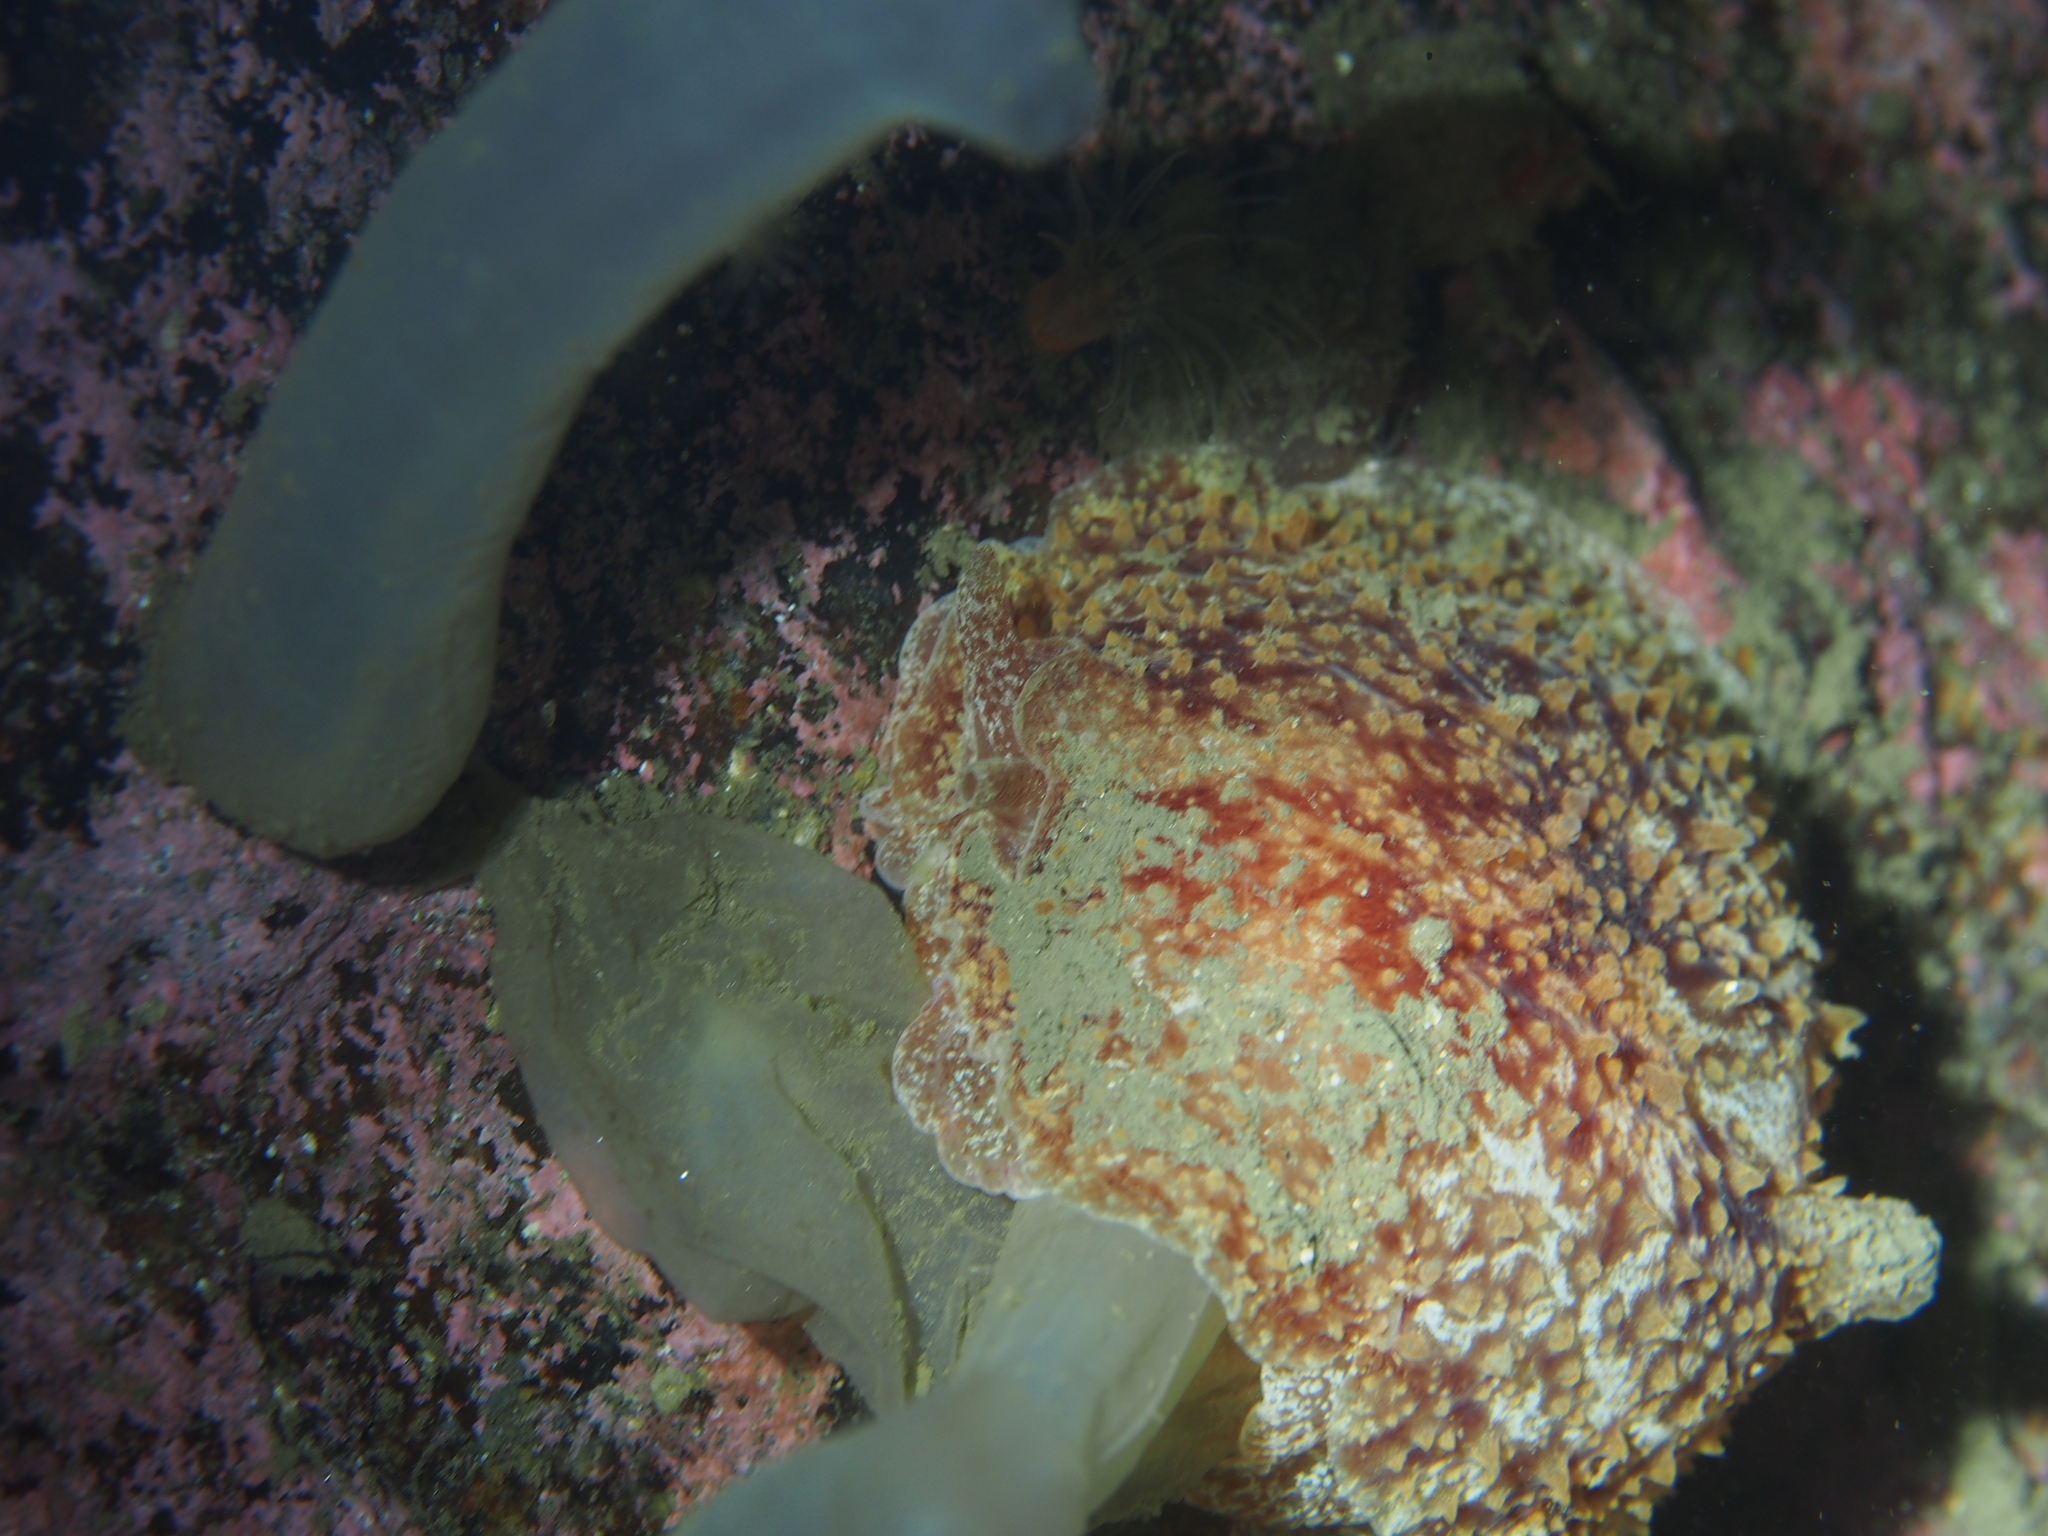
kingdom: Animalia
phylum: Mollusca
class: Gastropoda
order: Pleurobranchida
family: Pleurobranchidae
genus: Pleurobranchus
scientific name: Pleurobranchus membranaceus
